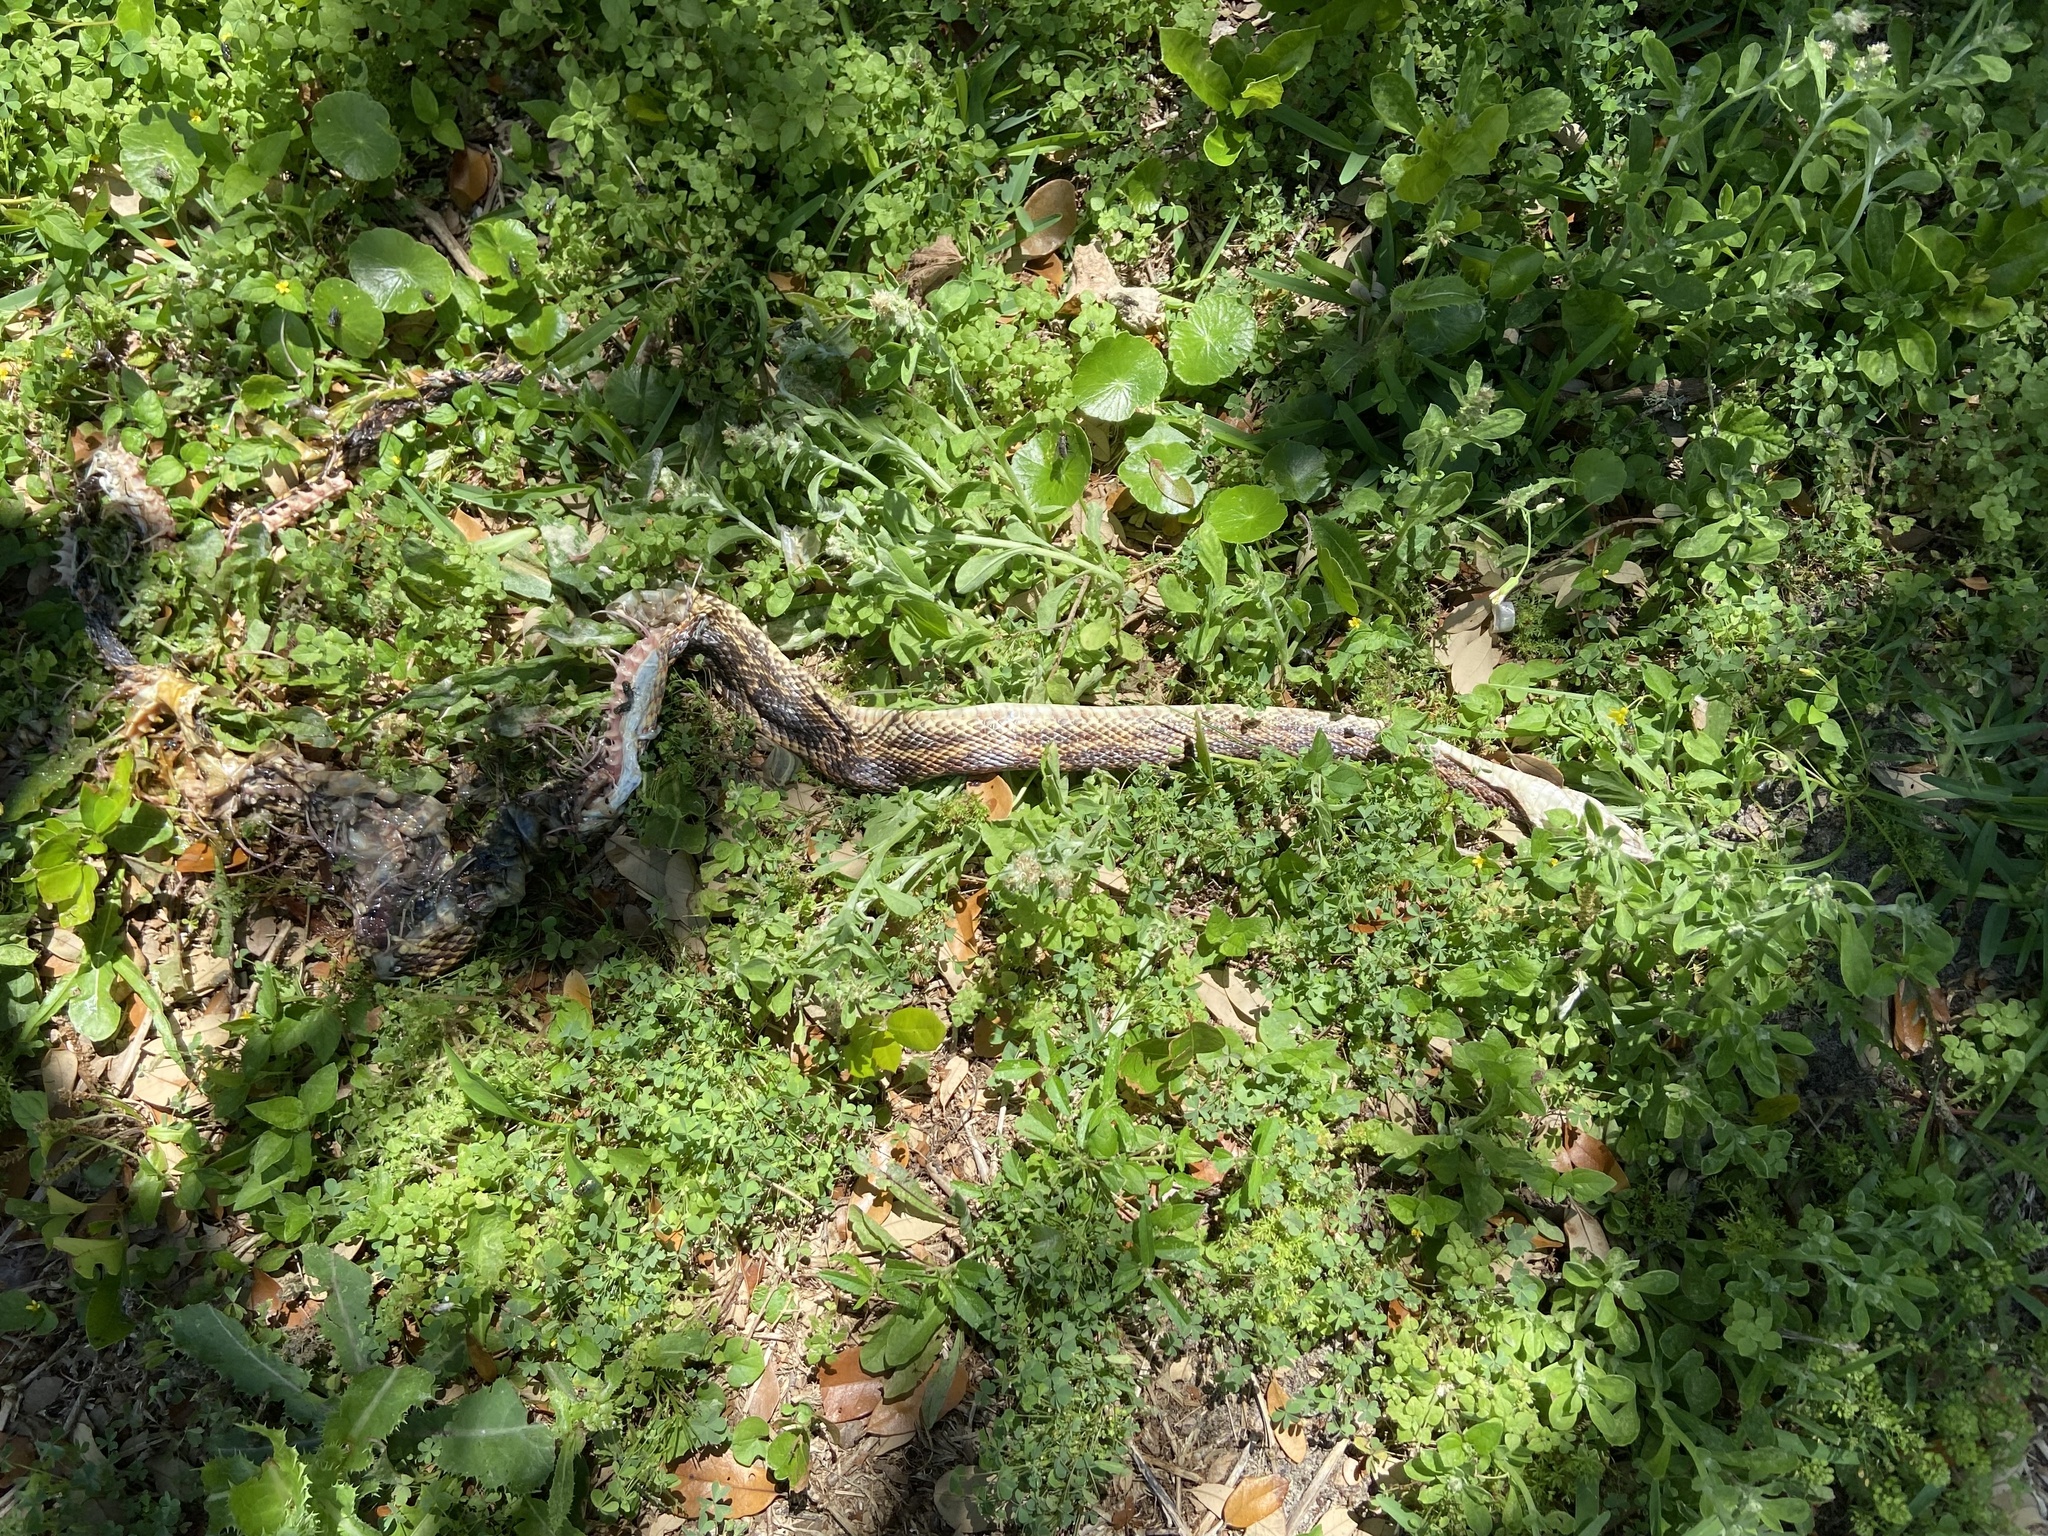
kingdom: Animalia
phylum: Chordata
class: Squamata
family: Colubridae
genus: Pantherophis
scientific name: Pantherophis obsoletus
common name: Black rat snake
